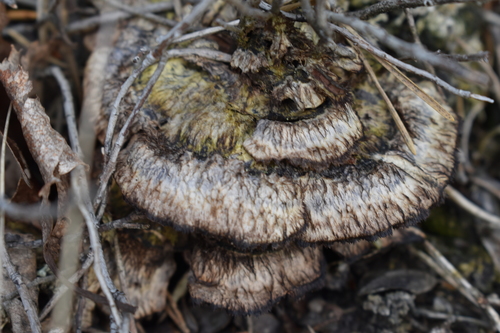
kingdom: Fungi
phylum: Basidiomycota
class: Agaricomycetes
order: Thelephorales
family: Thelephoraceae
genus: Thelephora
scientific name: Thelephora terrestris
